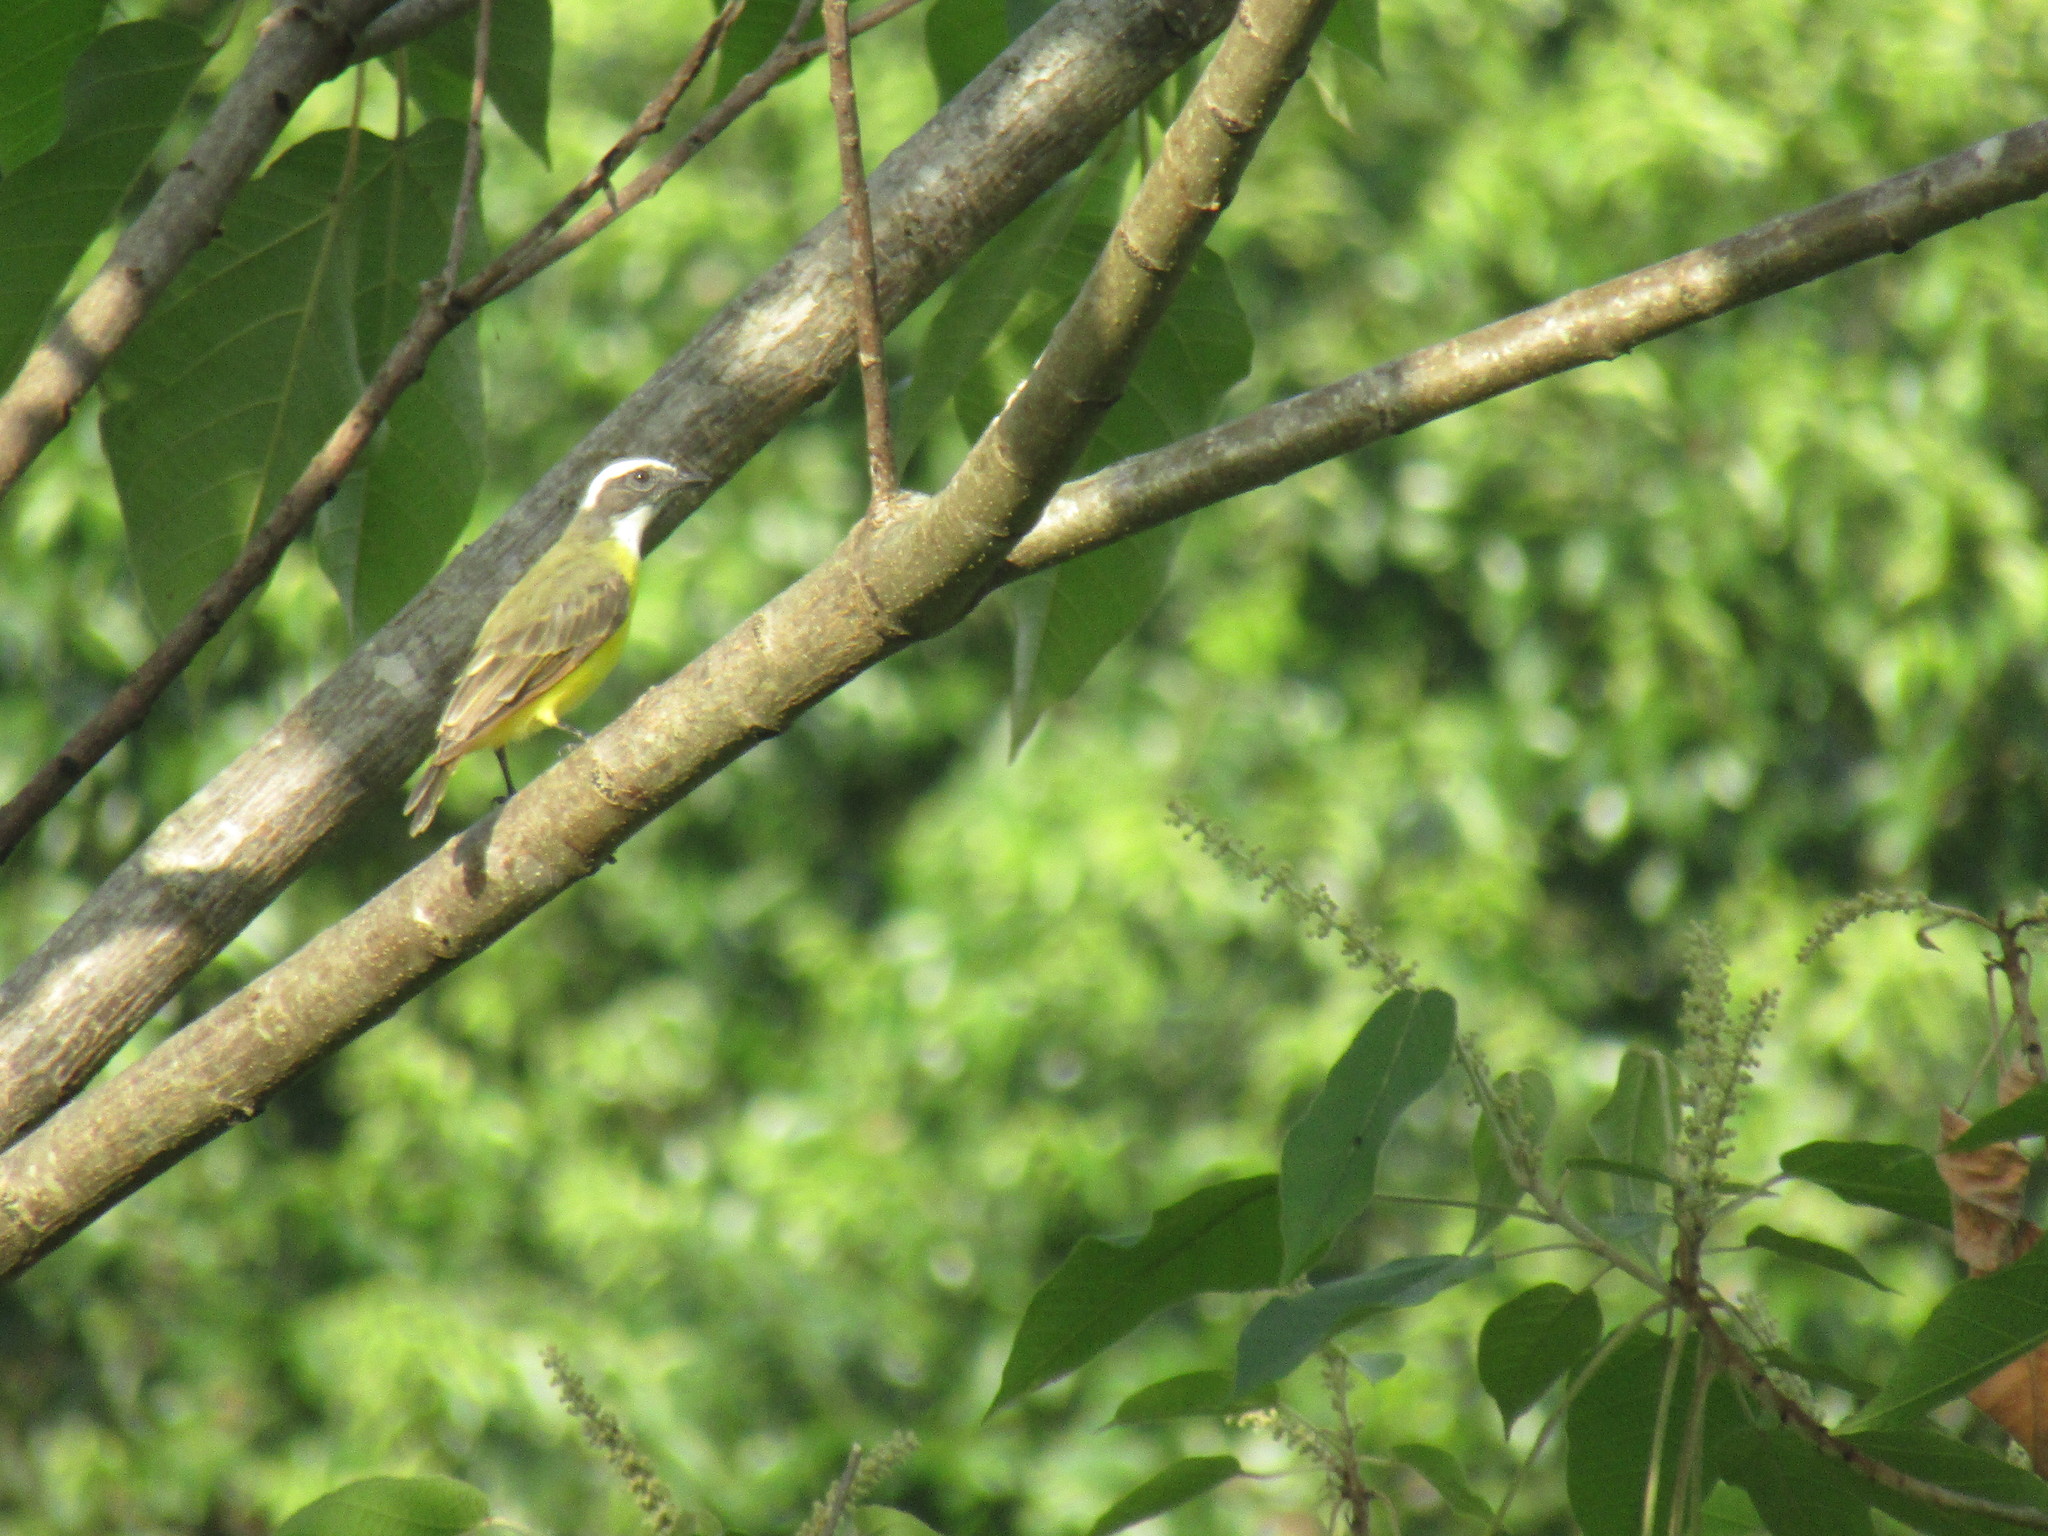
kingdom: Animalia
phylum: Chordata
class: Aves
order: Passeriformes
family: Tyrannidae
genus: Myiozetetes
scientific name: Myiozetetes similis
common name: Social flycatcher
